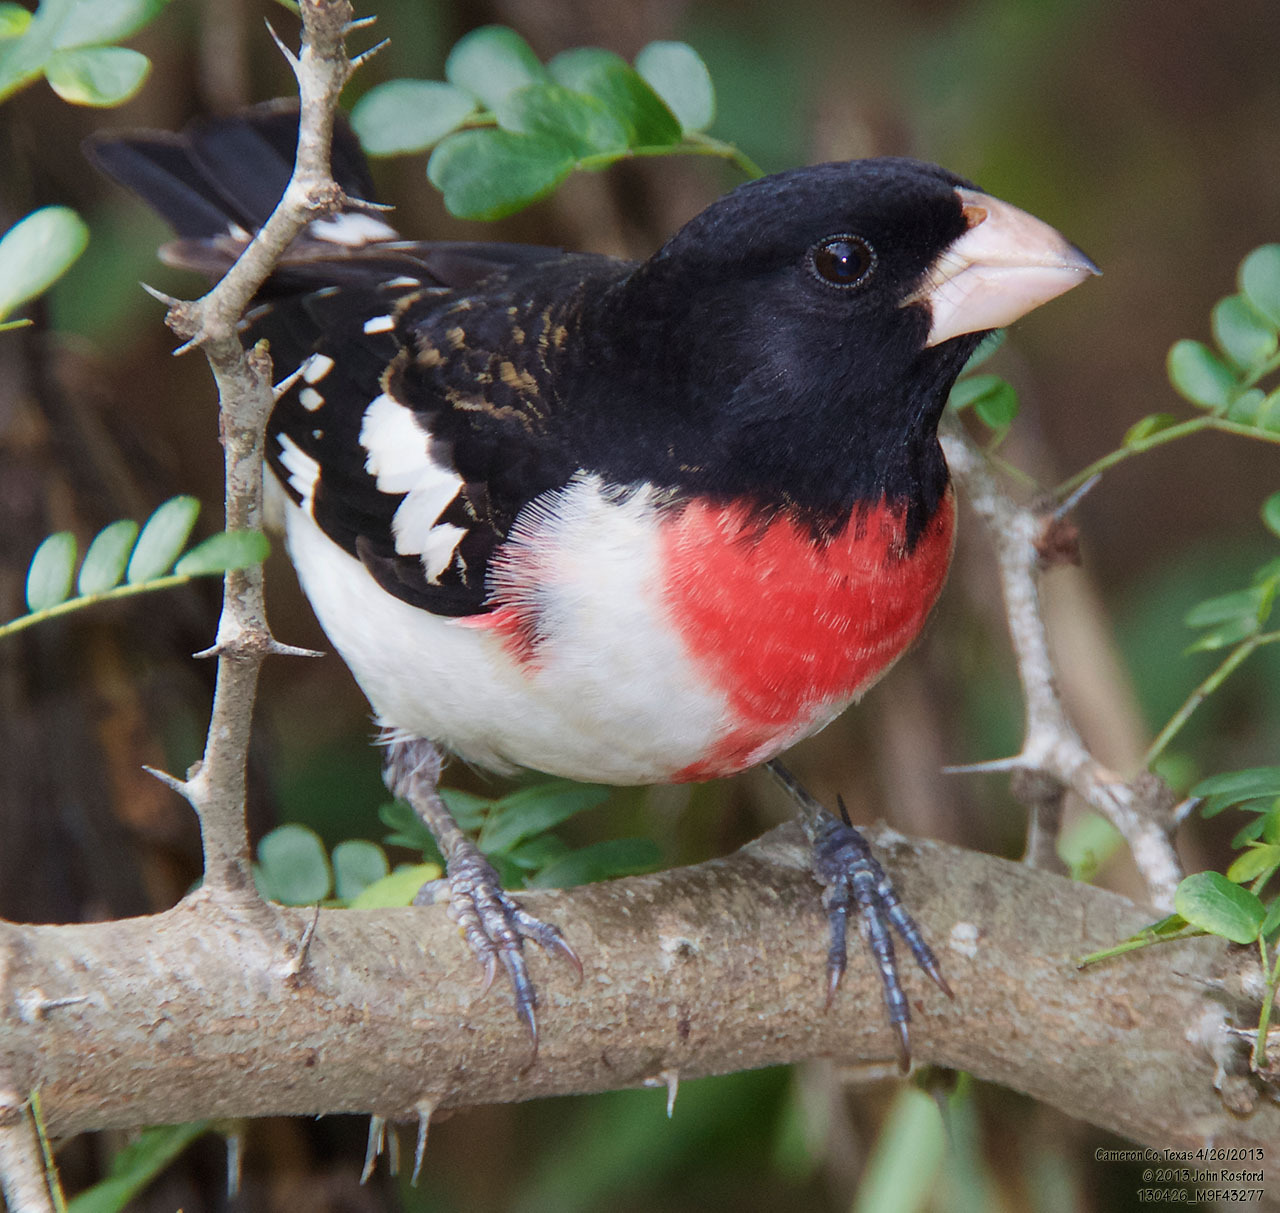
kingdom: Animalia
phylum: Chordata
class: Aves
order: Passeriformes
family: Cardinalidae
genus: Pheucticus
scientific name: Pheucticus ludovicianus
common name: Rose-breasted grosbeak
